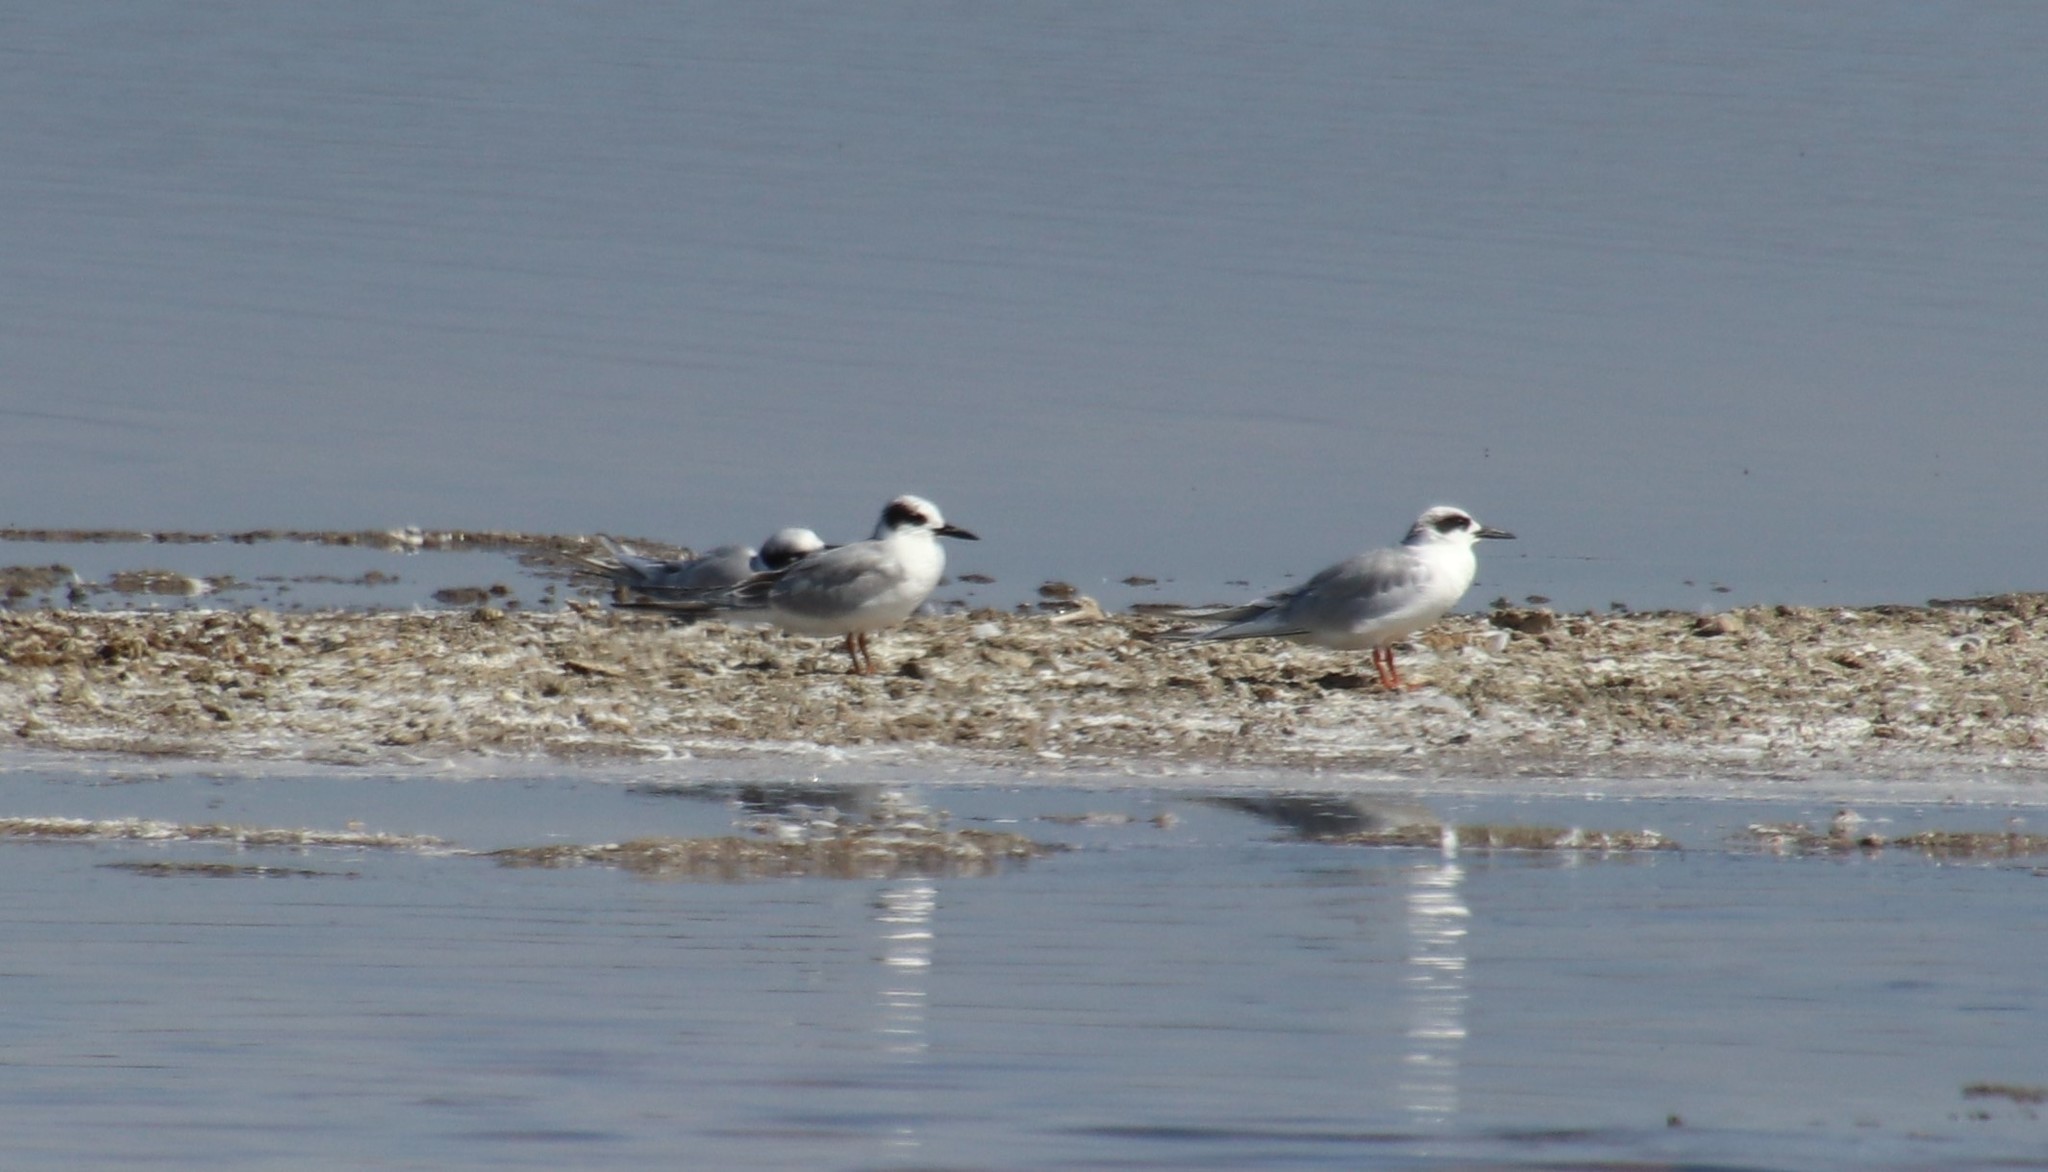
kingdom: Animalia
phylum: Chordata
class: Aves
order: Charadriiformes
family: Laridae
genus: Sterna
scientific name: Sterna forsteri
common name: Forster's tern
